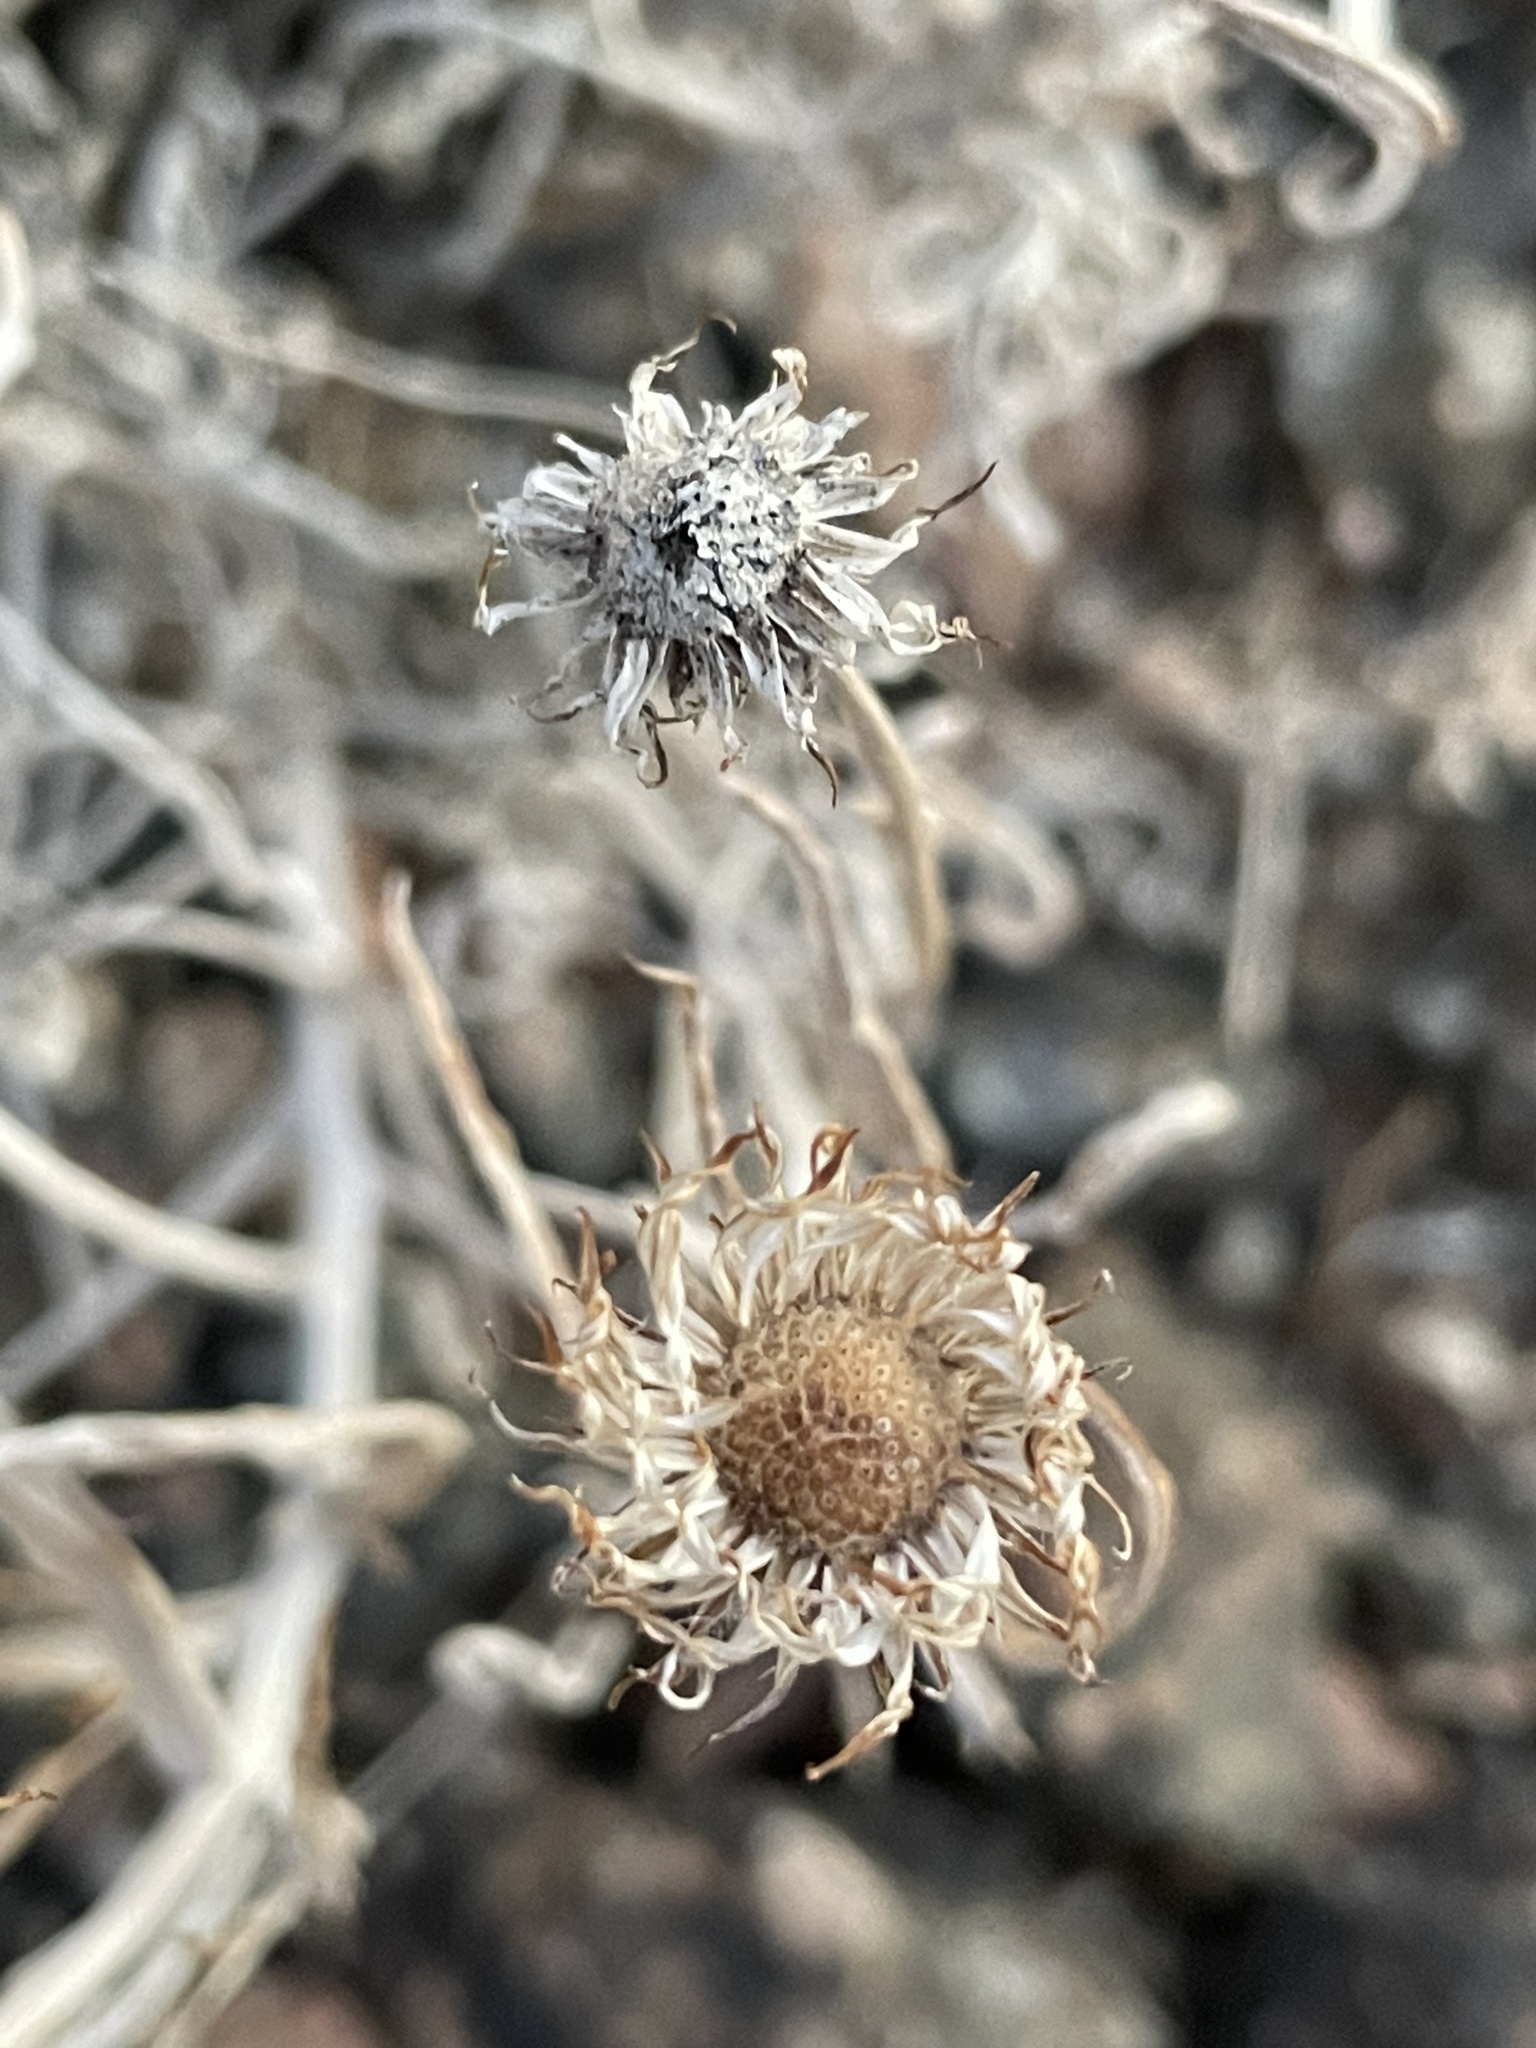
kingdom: Plantae
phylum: Tracheophyta
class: Magnoliopsida
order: Asterales
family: Asteraceae
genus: Xylorhiza
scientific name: Xylorhiza tortifolia
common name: Hurt-leaf woody-aster
